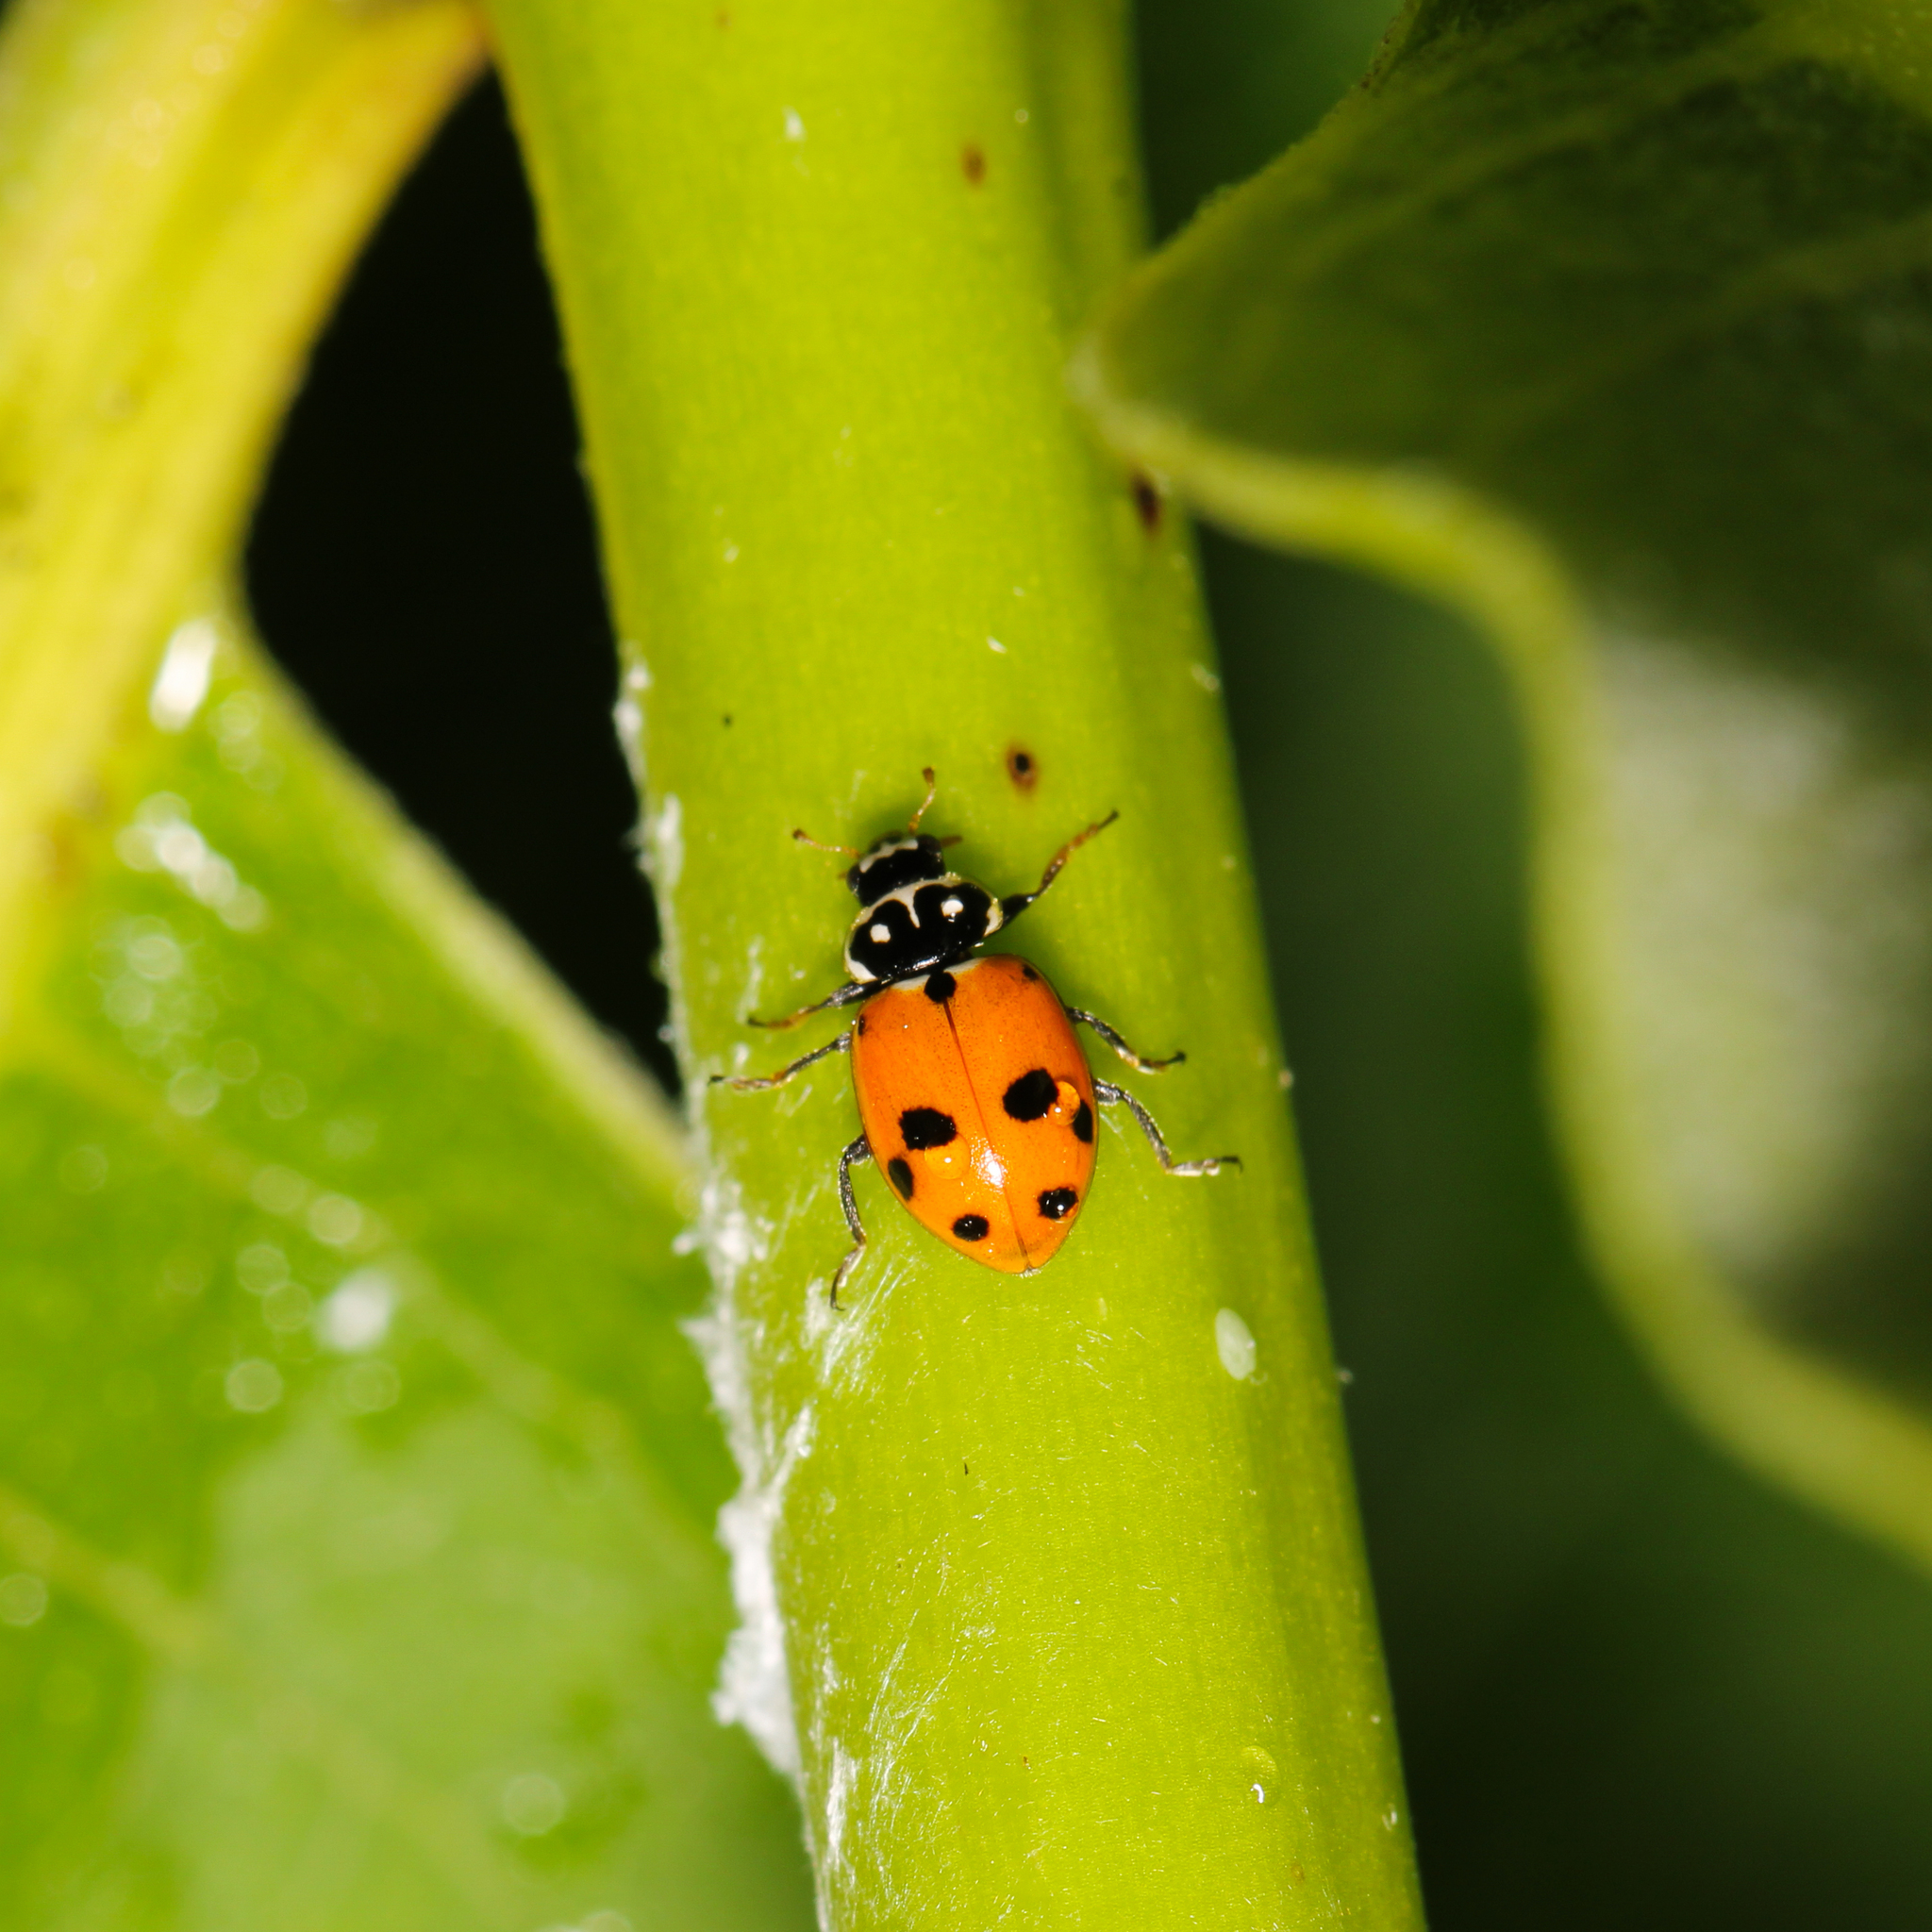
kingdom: Animalia
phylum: Arthropoda
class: Insecta
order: Coleoptera
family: Coccinellidae
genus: Hippodamia
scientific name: Hippodamia variegata
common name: Ladybird beetle
